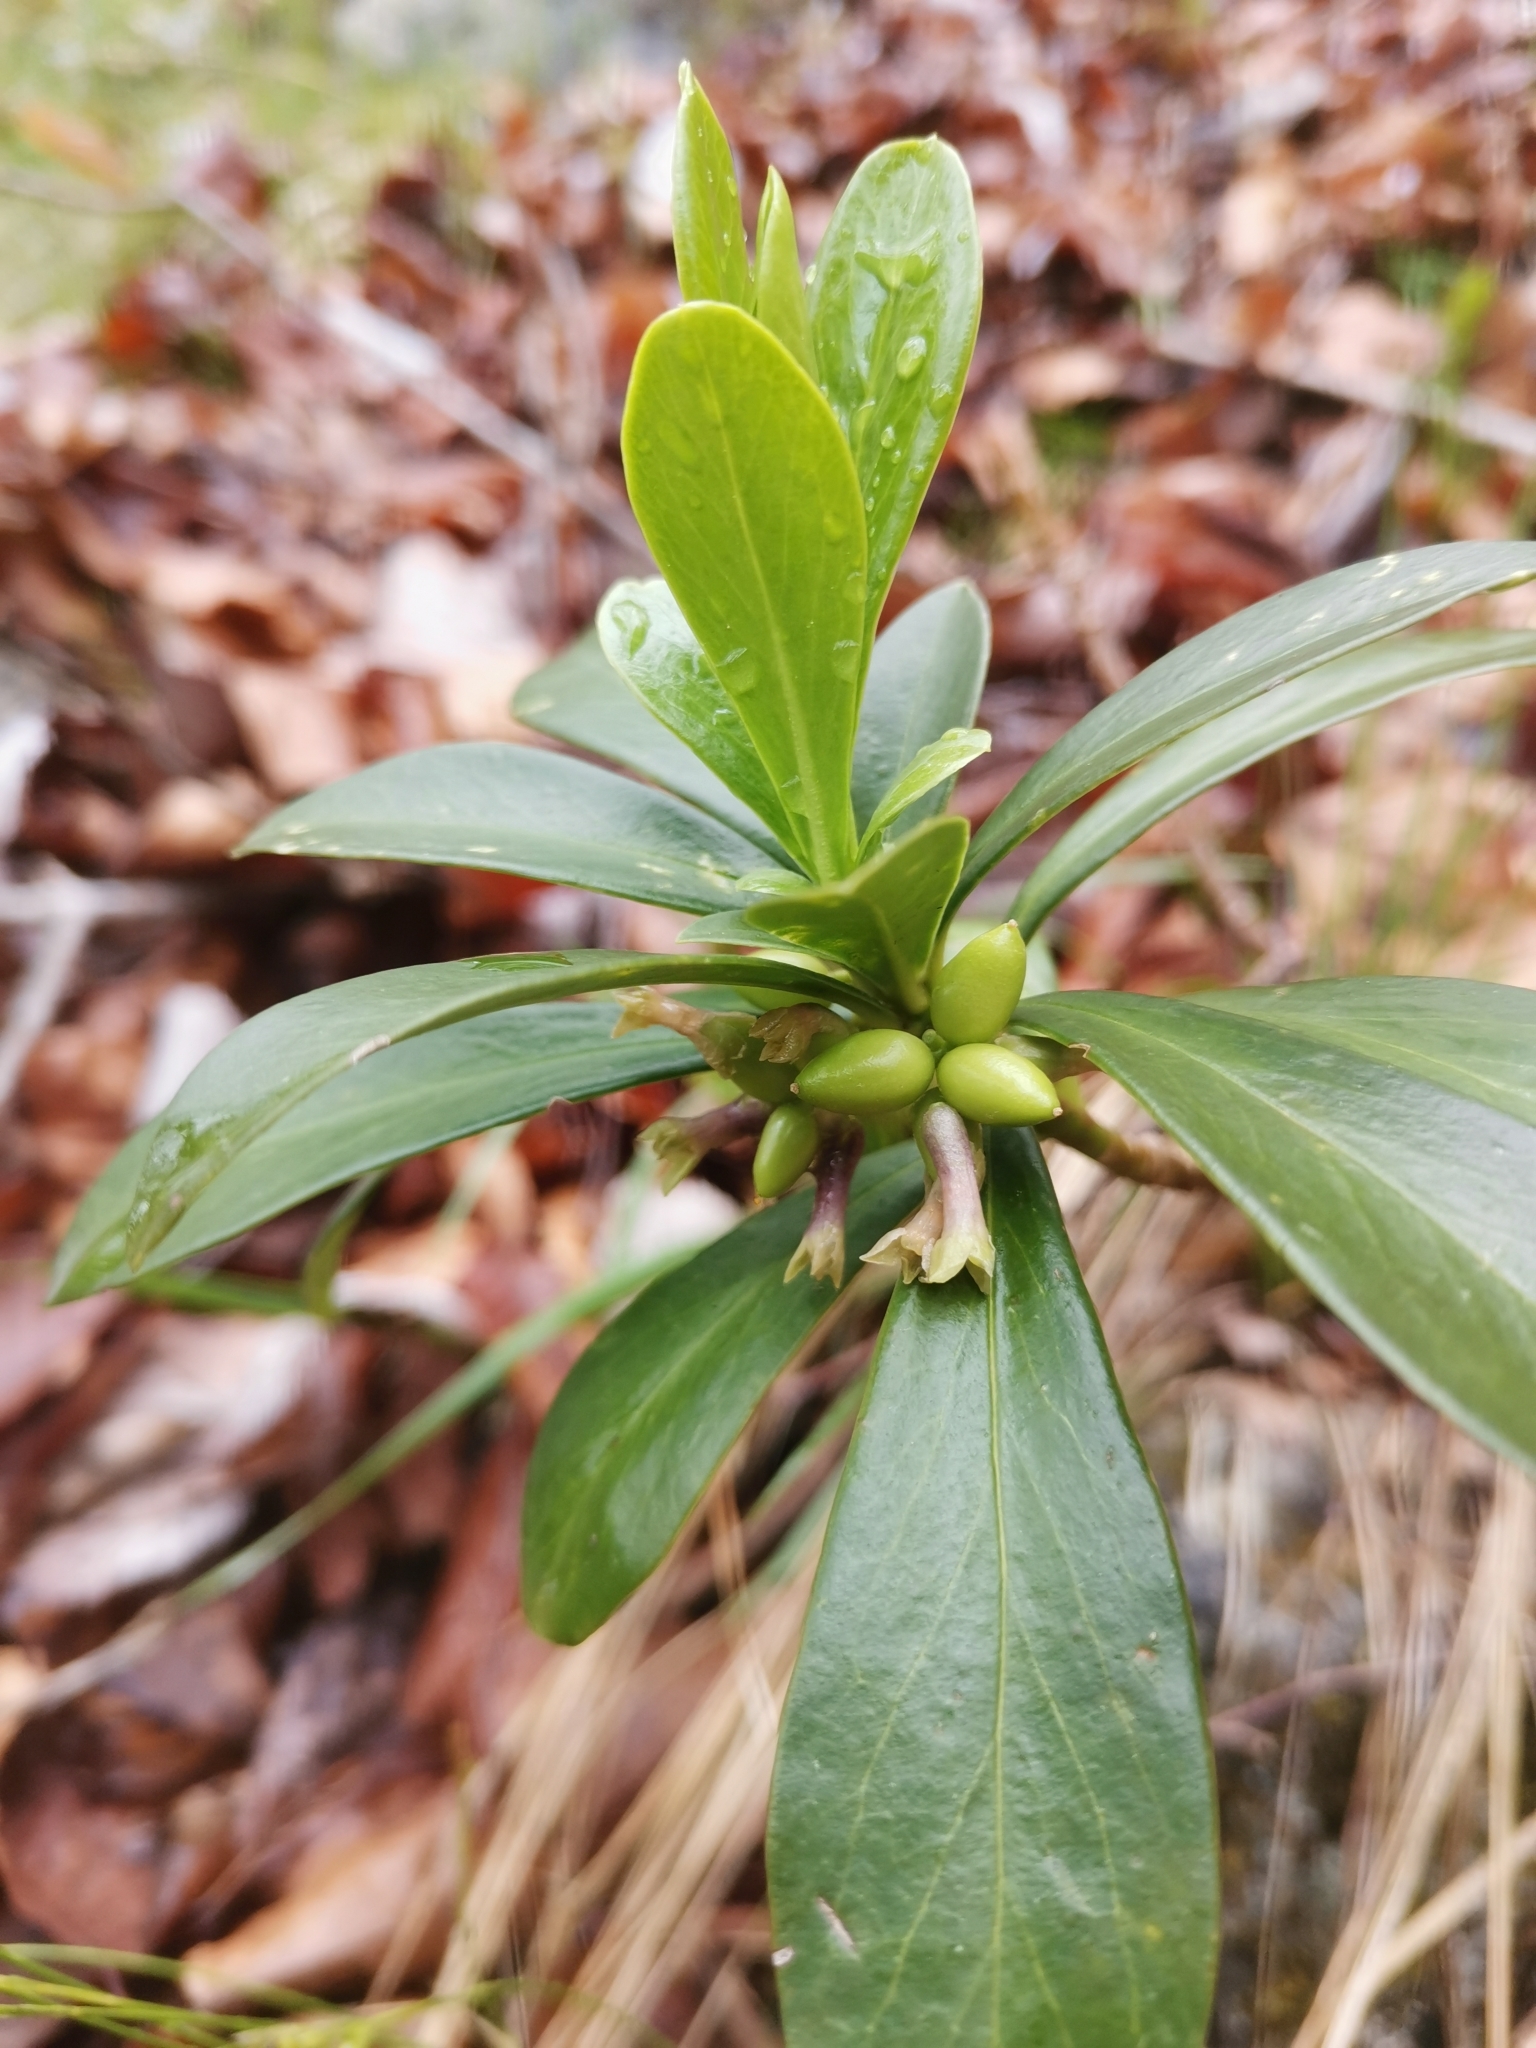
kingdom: Plantae
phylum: Tracheophyta
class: Magnoliopsida
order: Malvales
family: Thymelaeaceae
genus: Daphne
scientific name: Daphne laureola
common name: Spurge-laurel
